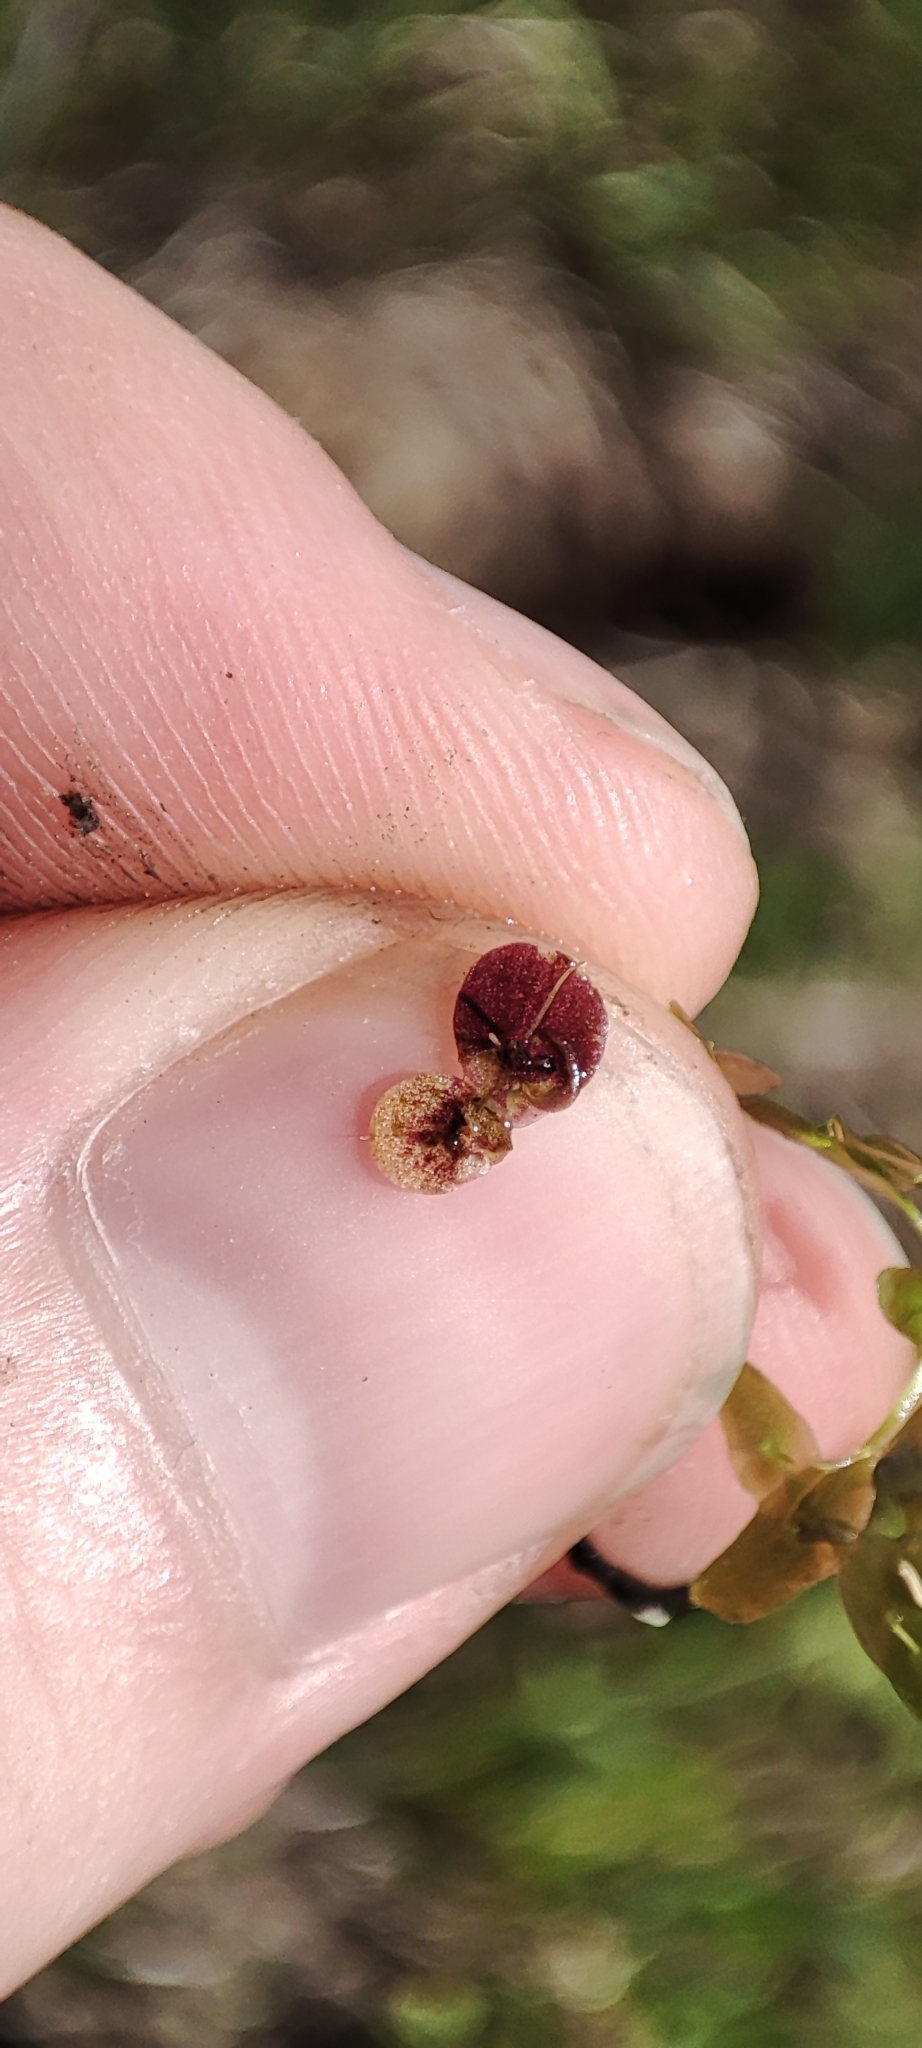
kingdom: Plantae
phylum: Tracheophyta
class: Liliopsida
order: Alismatales
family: Araceae
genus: Spirodela
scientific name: Spirodela polyrhiza
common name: Great duckweed
